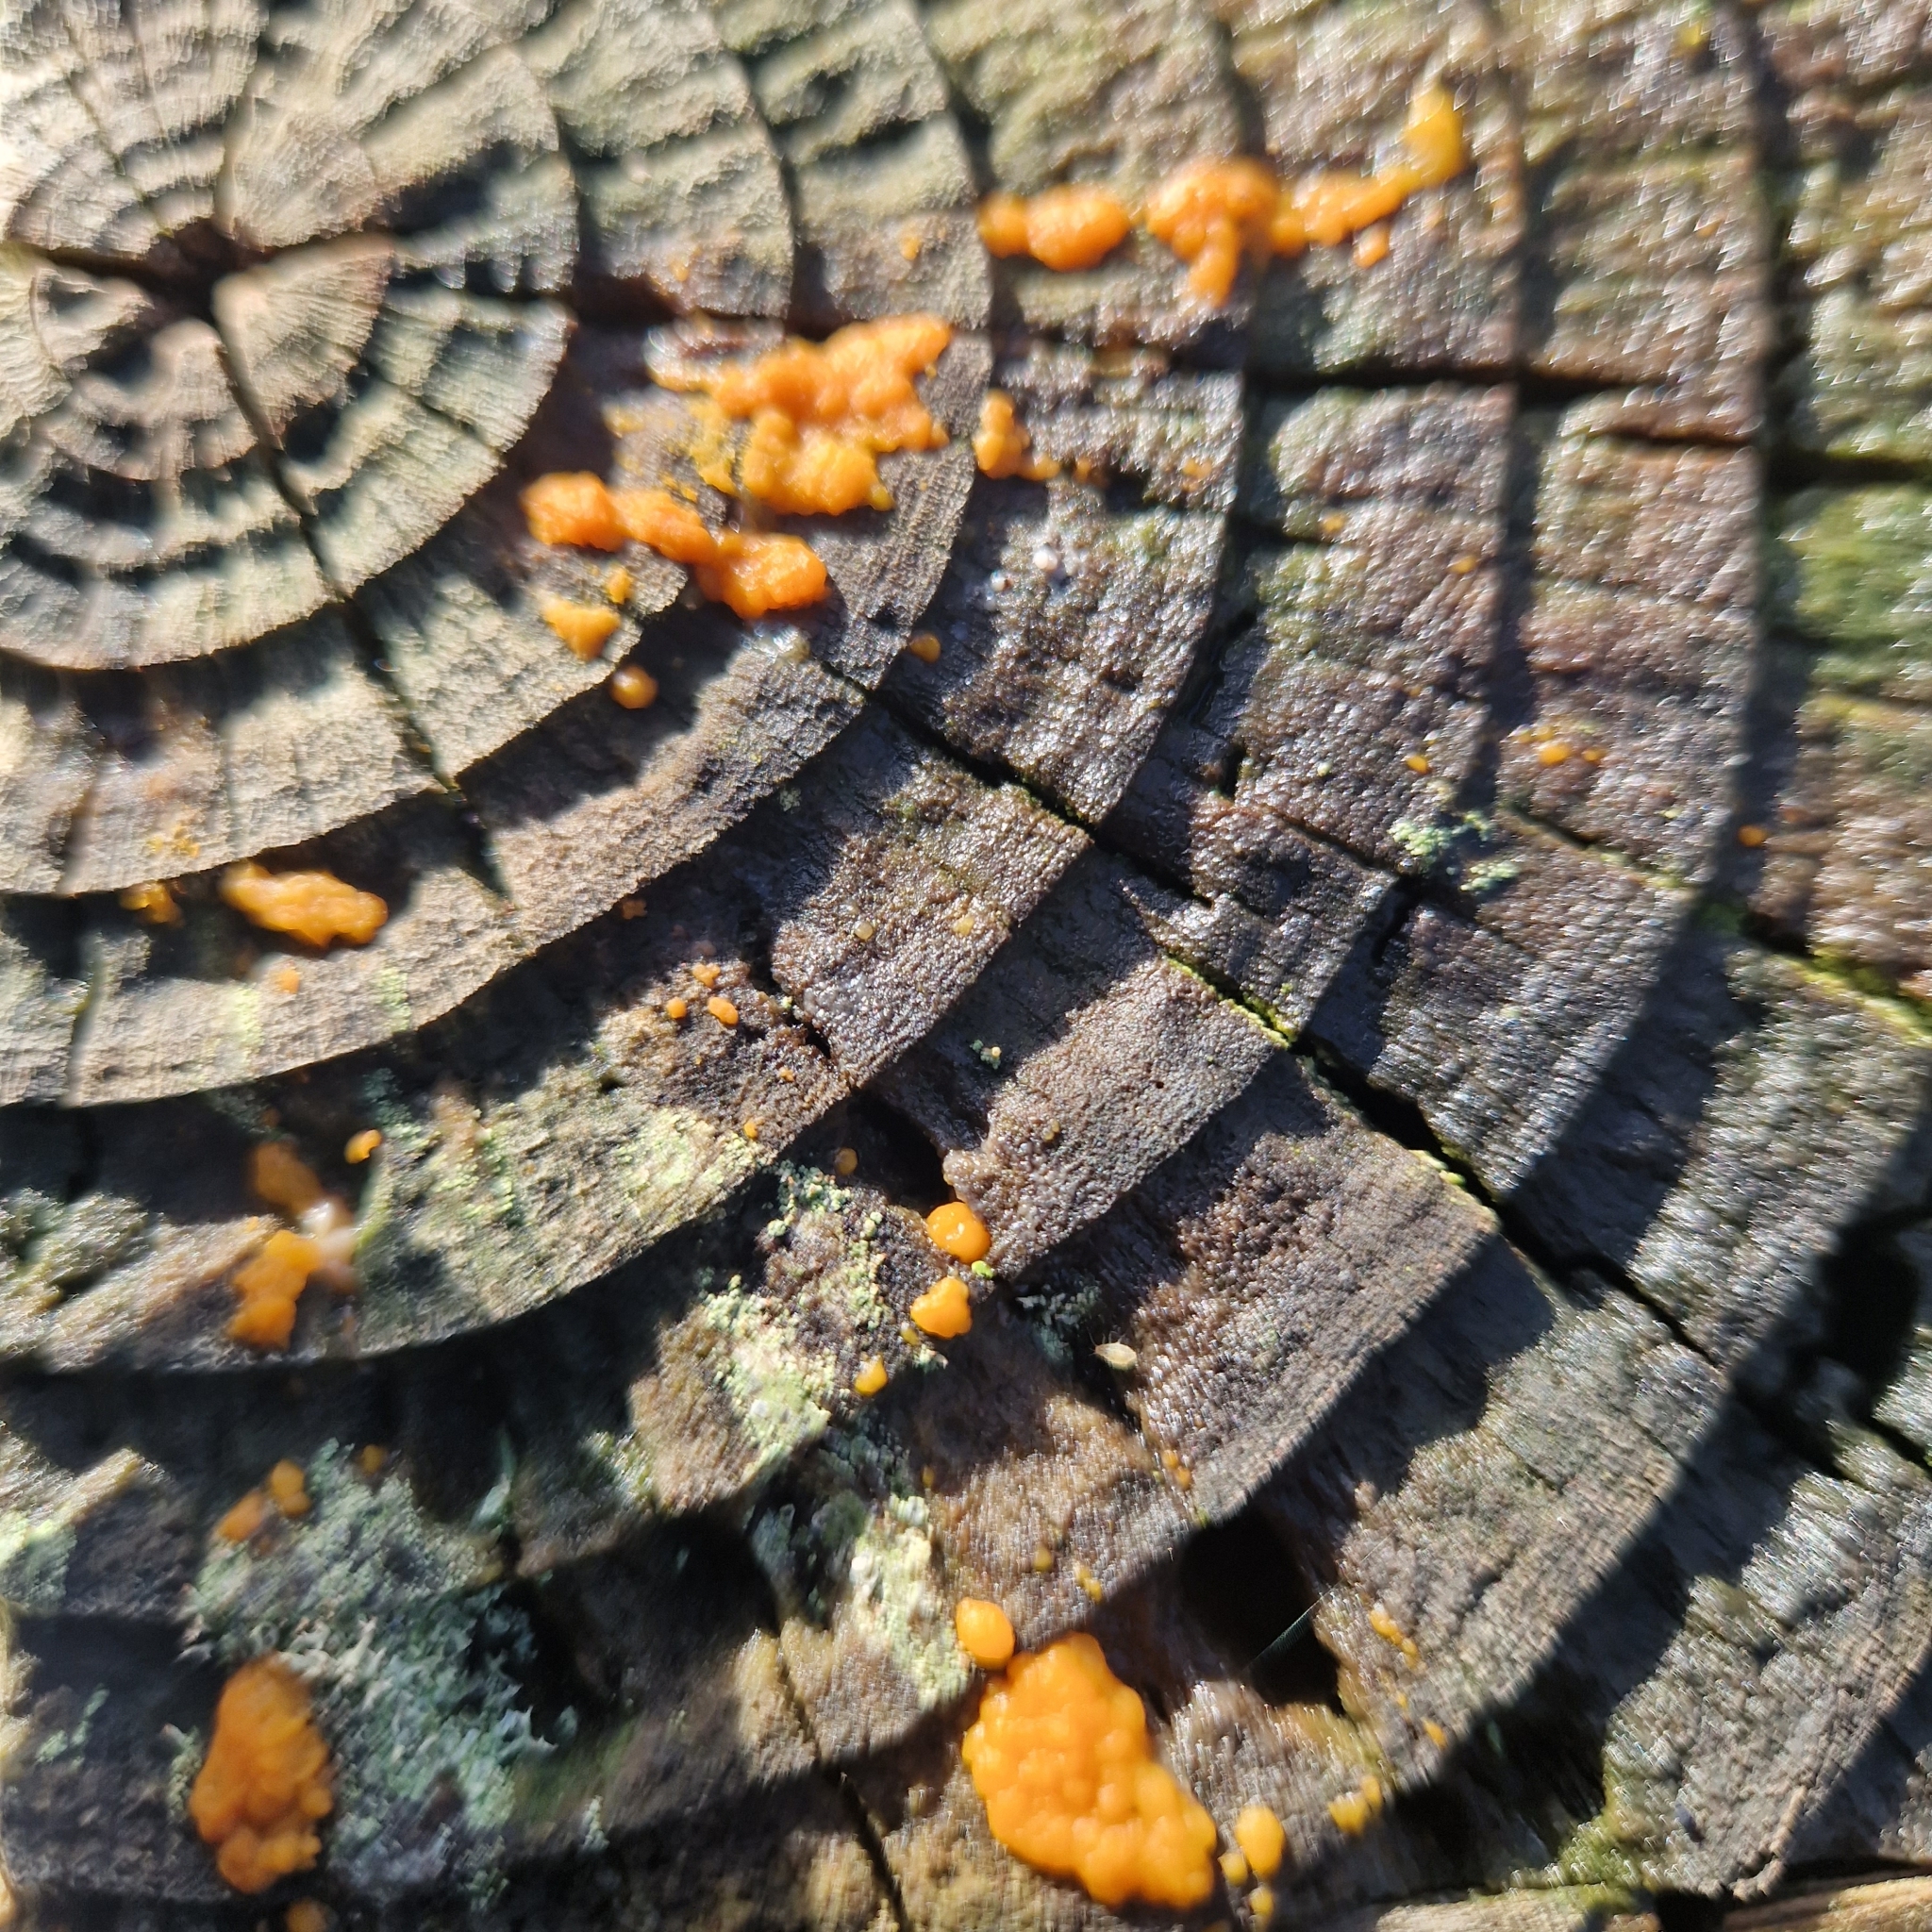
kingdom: Fungi
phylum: Basidiomycota
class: Dacrymycetes
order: Dacrymycetales
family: Dacrymycetaceae
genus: Dacrymyces
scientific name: Dacrymyces stillatus
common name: Common jelly spot
